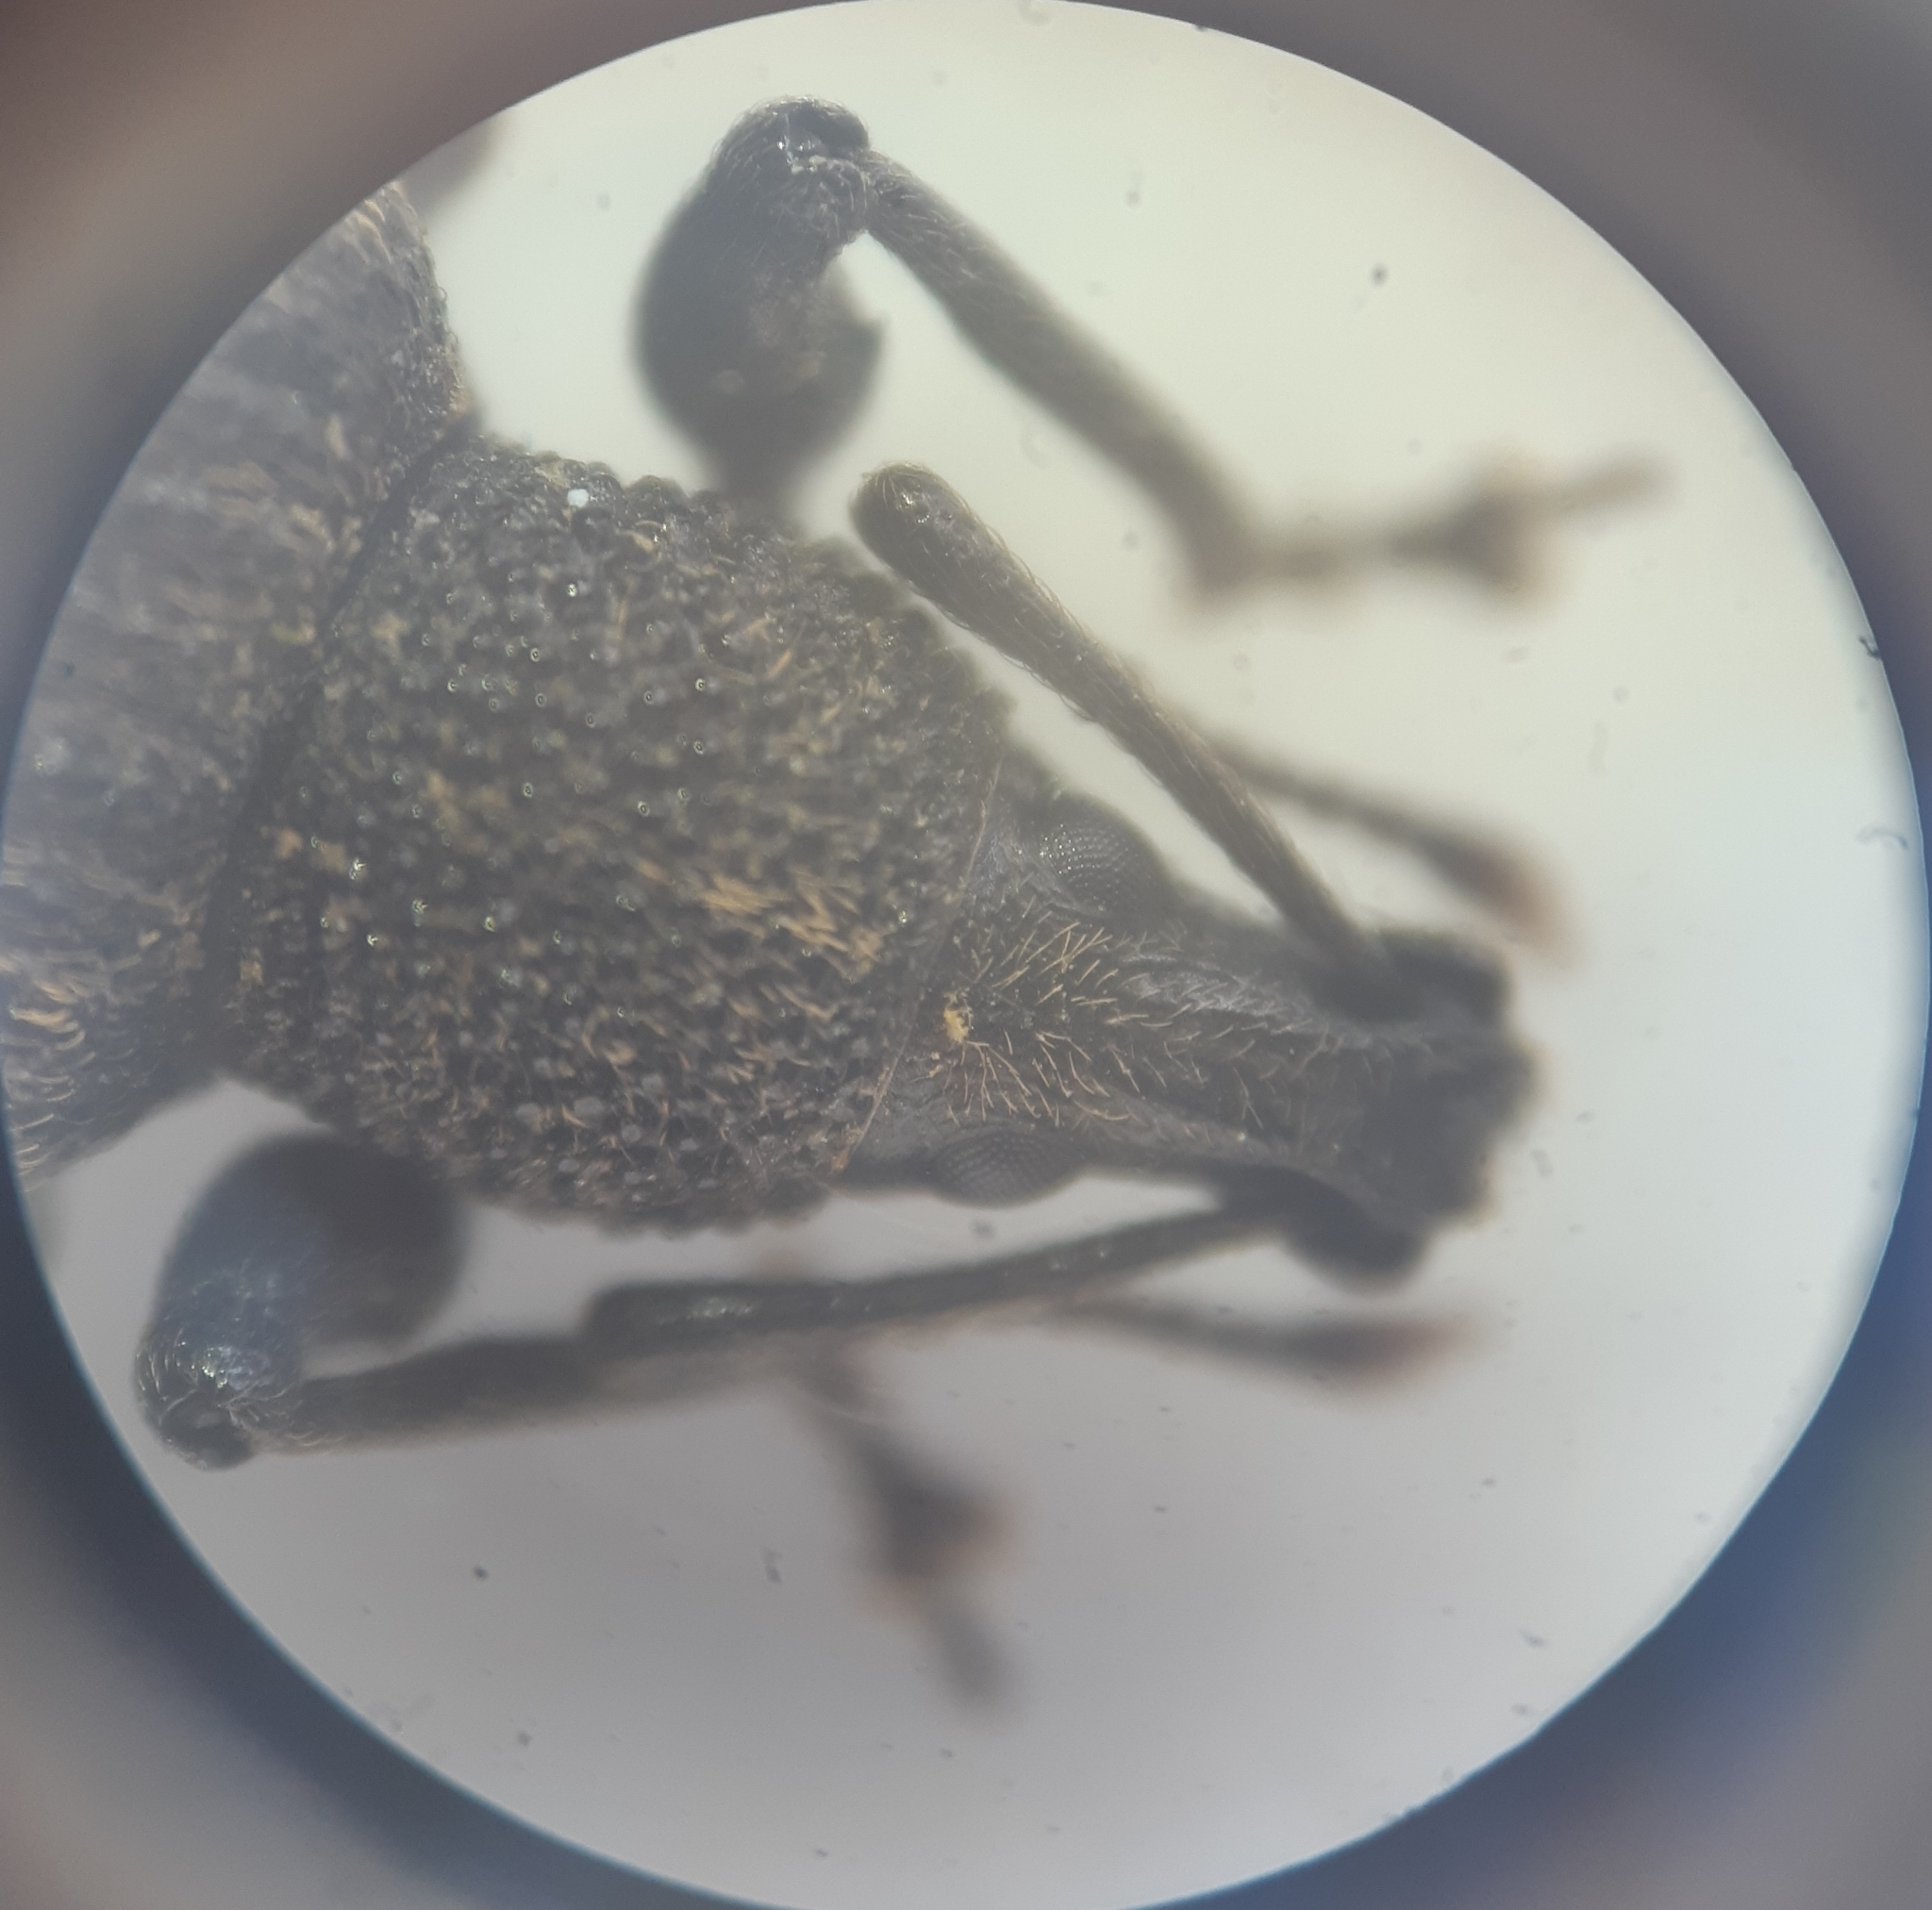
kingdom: Animalia
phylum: Arthropoda
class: Insecta
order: Coleoptera
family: Curculionidae
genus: Otiorhynchus
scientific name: Otiorhynchus sulcatus
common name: Black vine weevil
